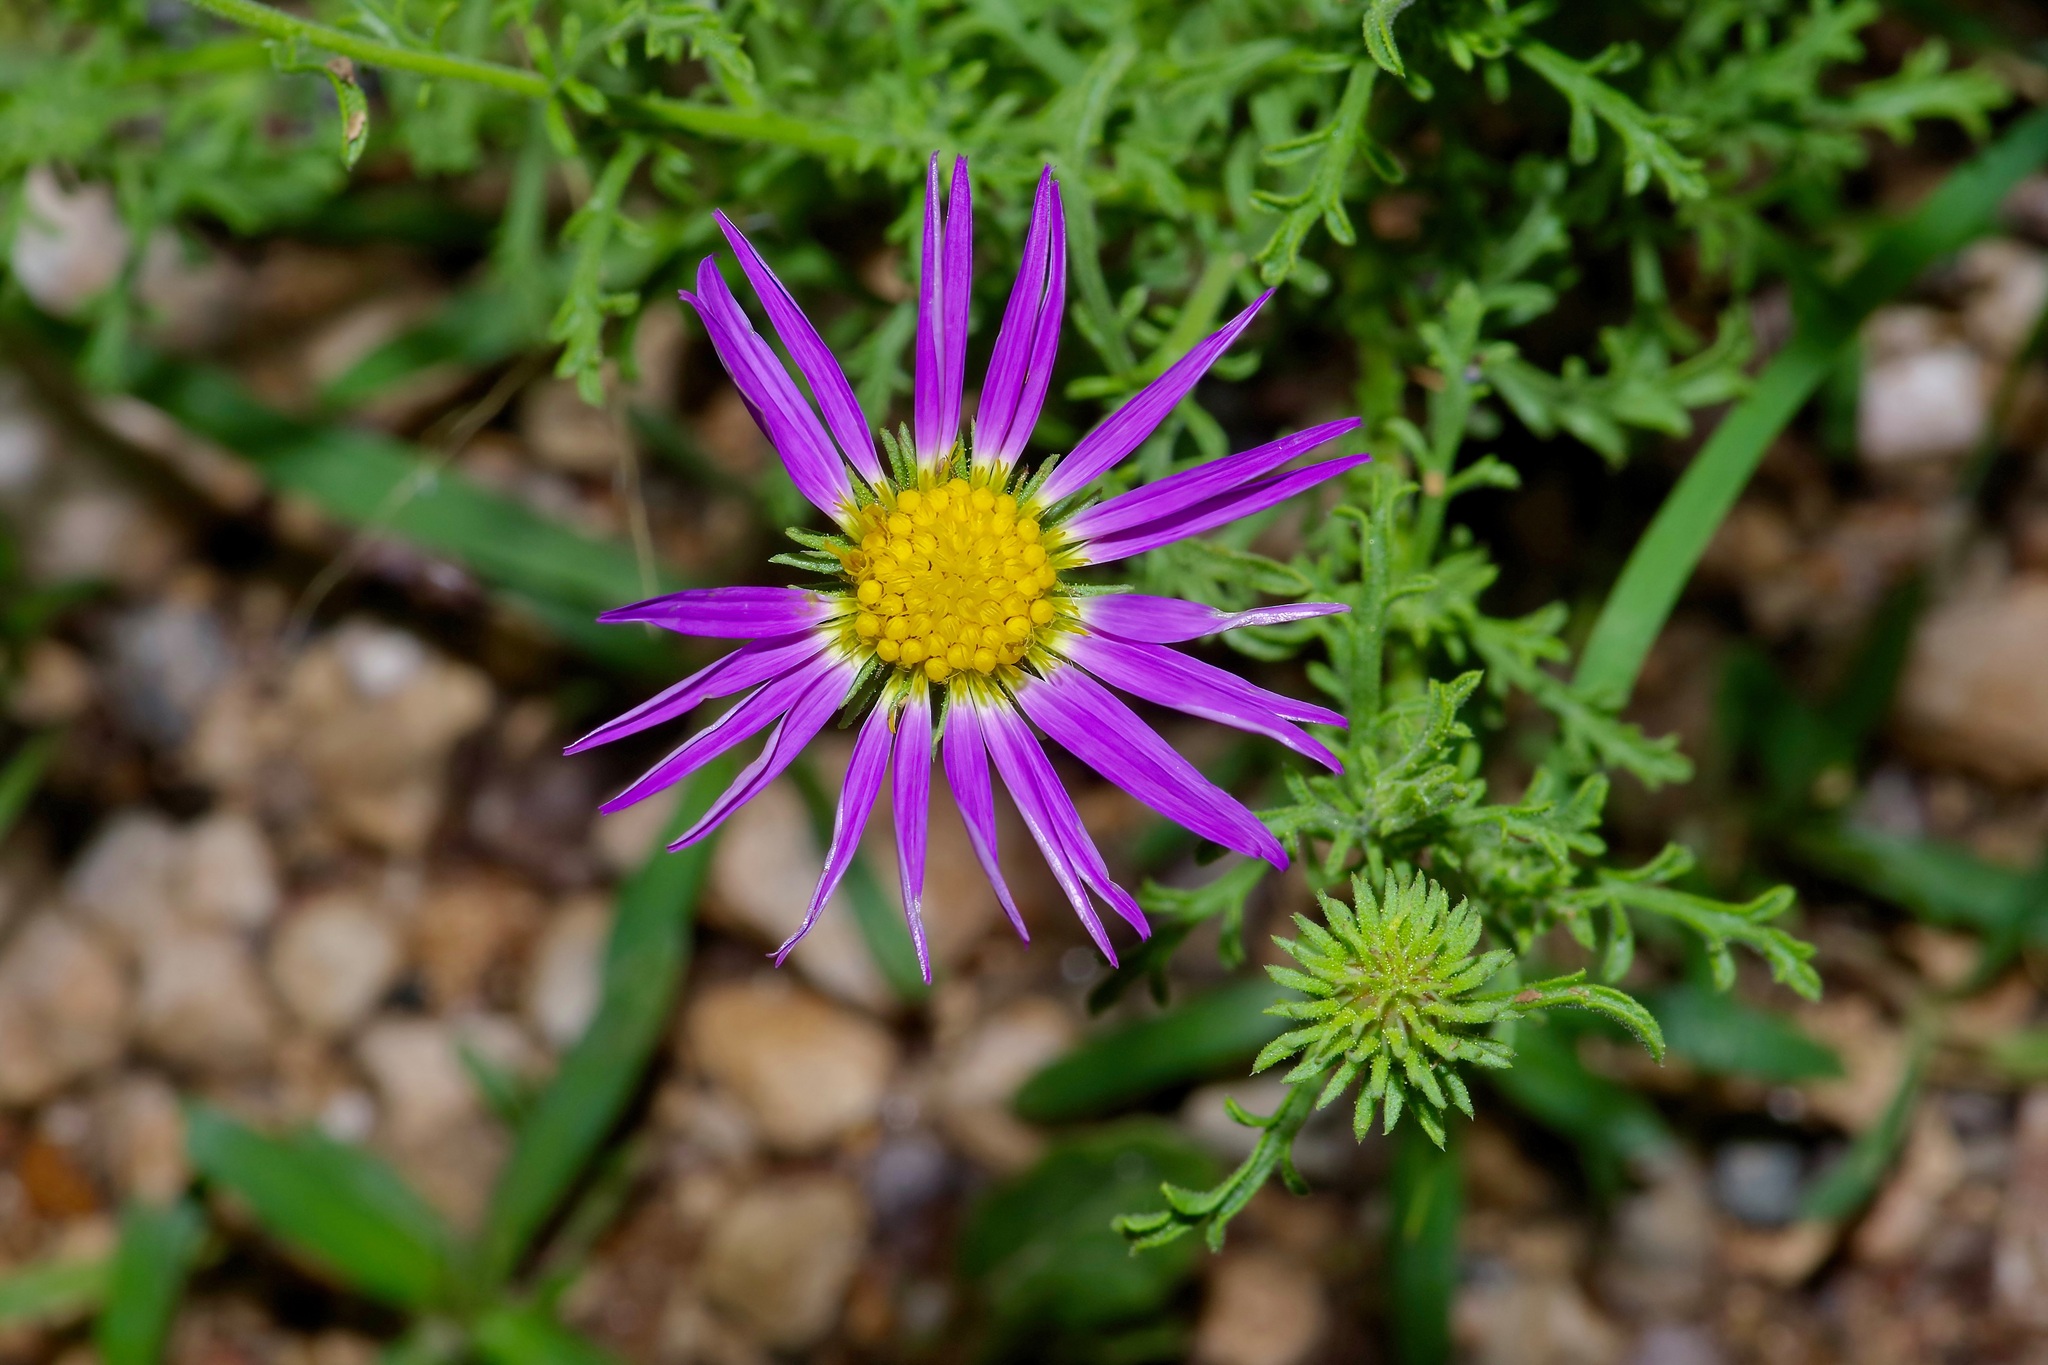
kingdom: Plantae
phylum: Tracheophyta
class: Magnoliopsida
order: Asterales
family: Asteraceae
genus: Machaeranthera
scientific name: Machaeranthera tanacetifolia
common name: Tansy-aster
